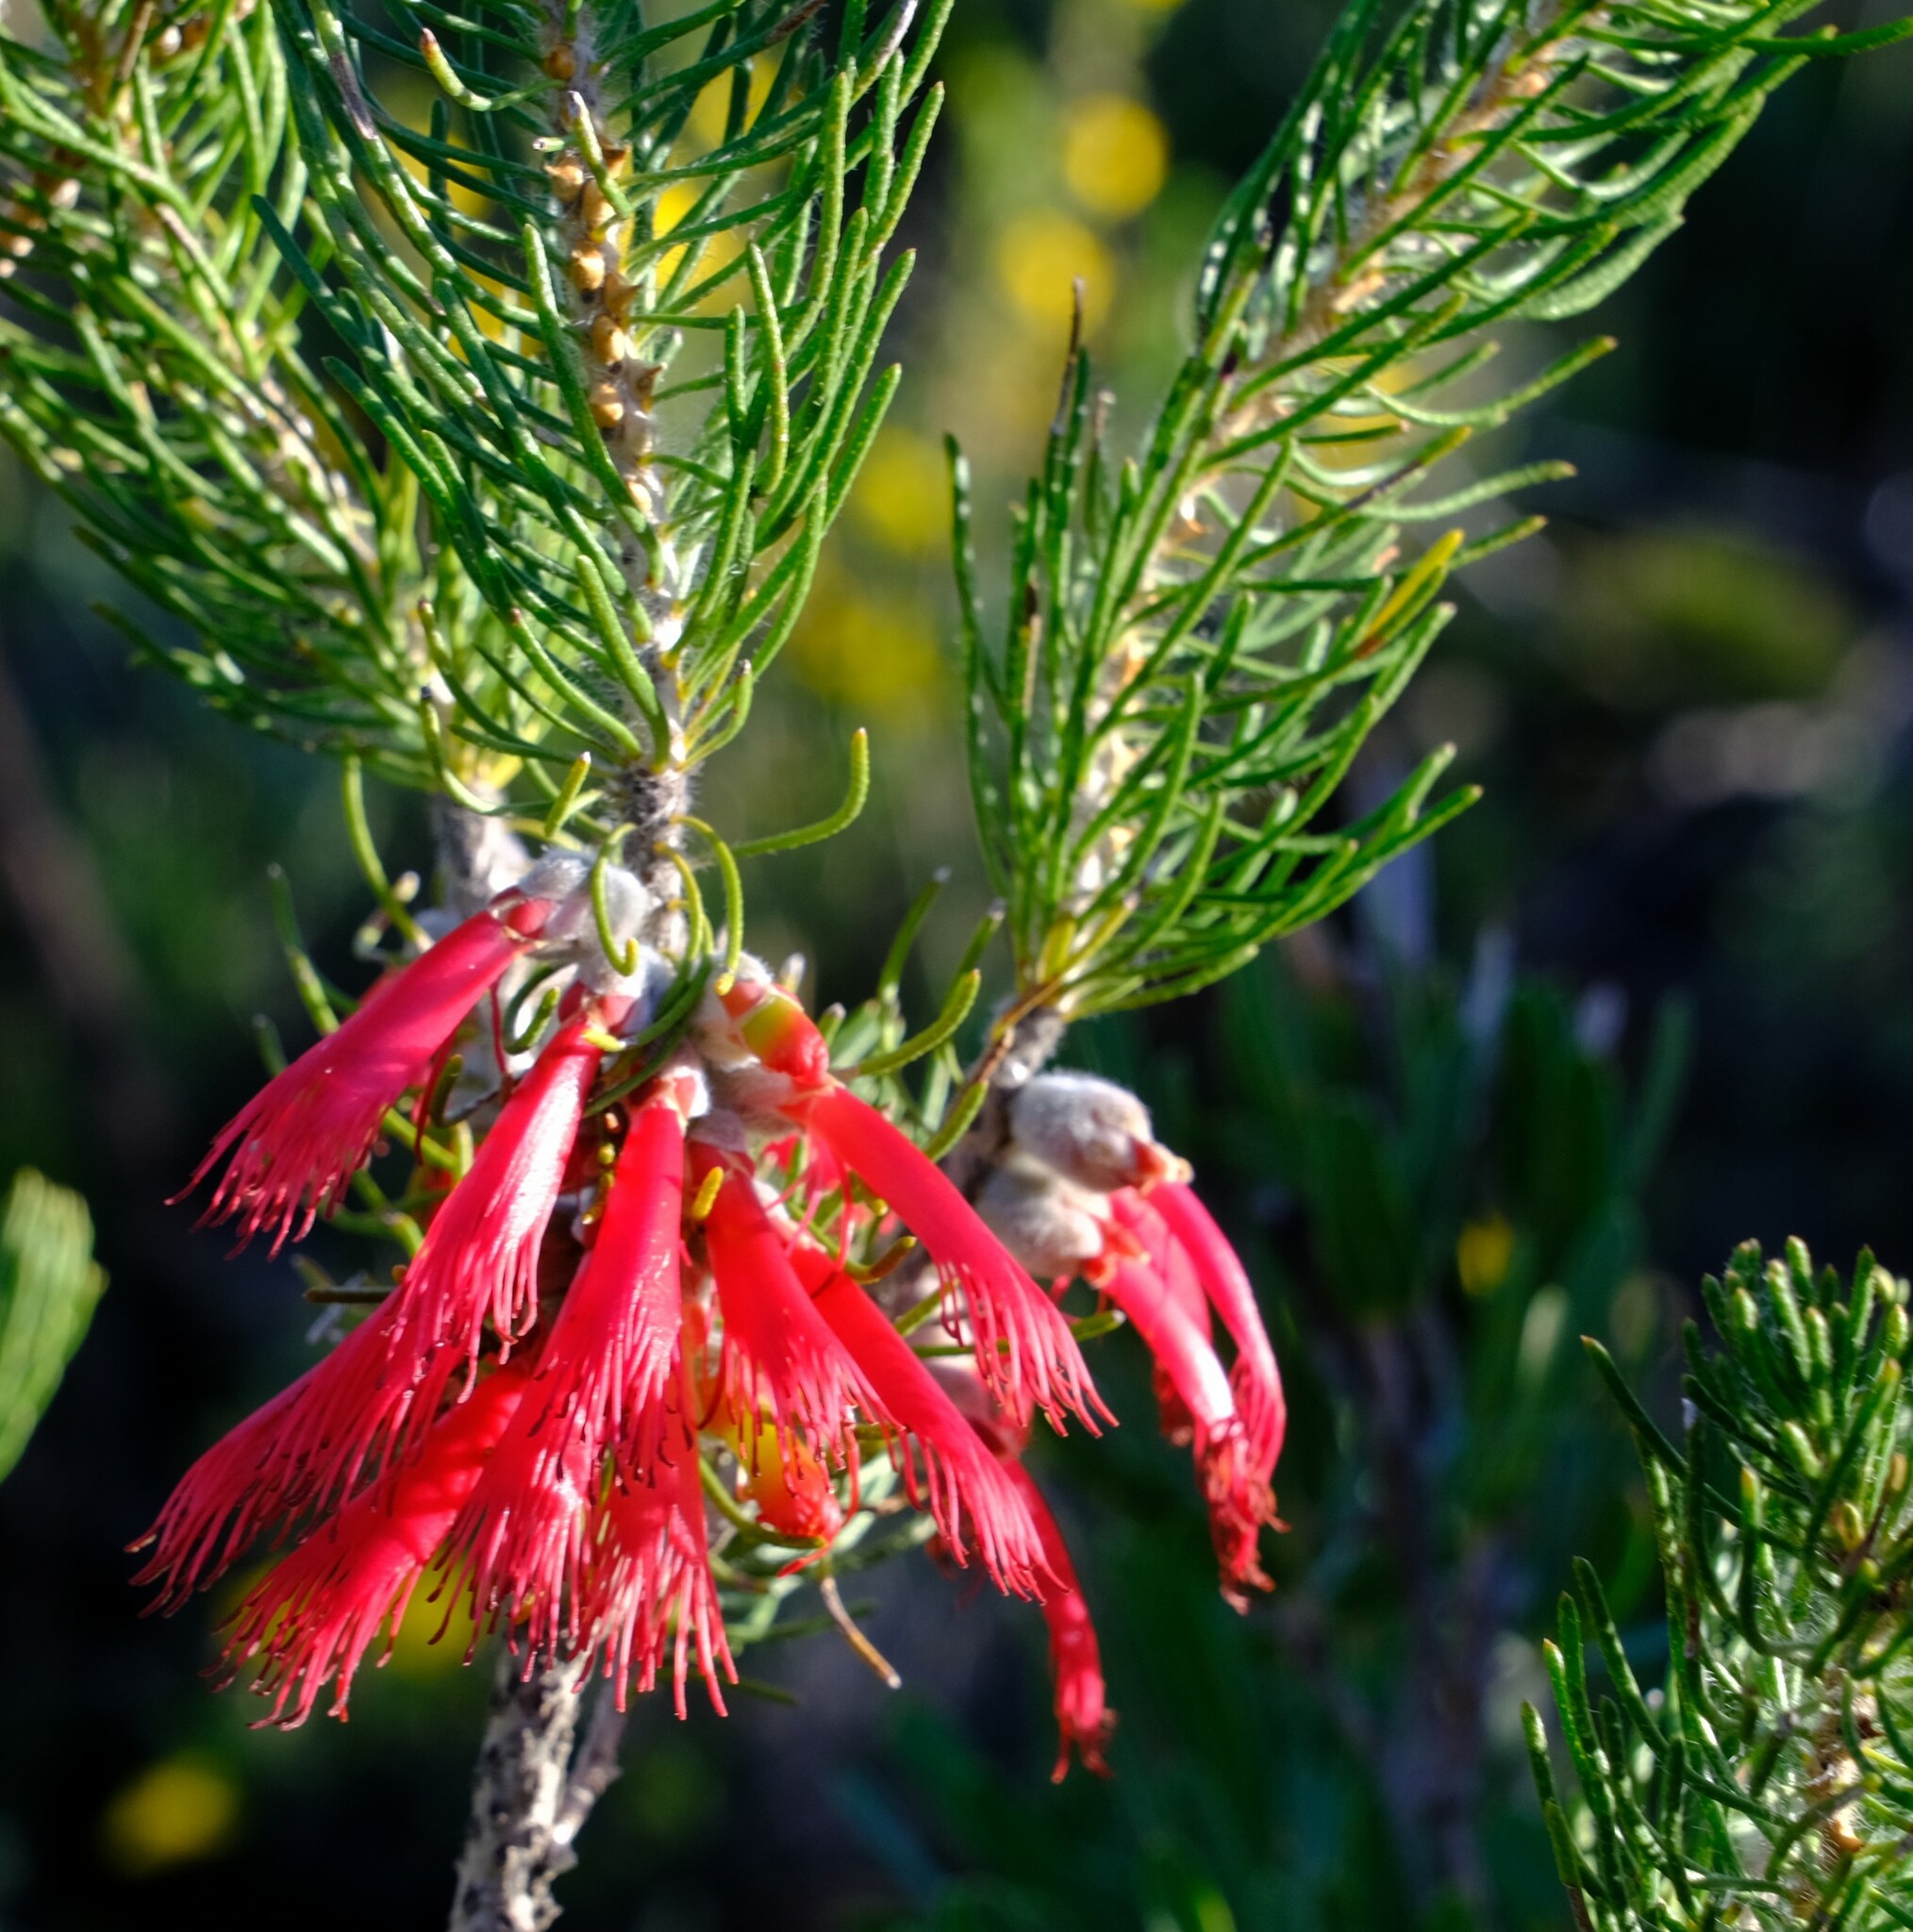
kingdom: Plantae
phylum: Tracheophyta
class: Magnoliopsida
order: Myrtales
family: Myrtaceae
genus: Melaleuca
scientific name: Melaleuca cruenta
